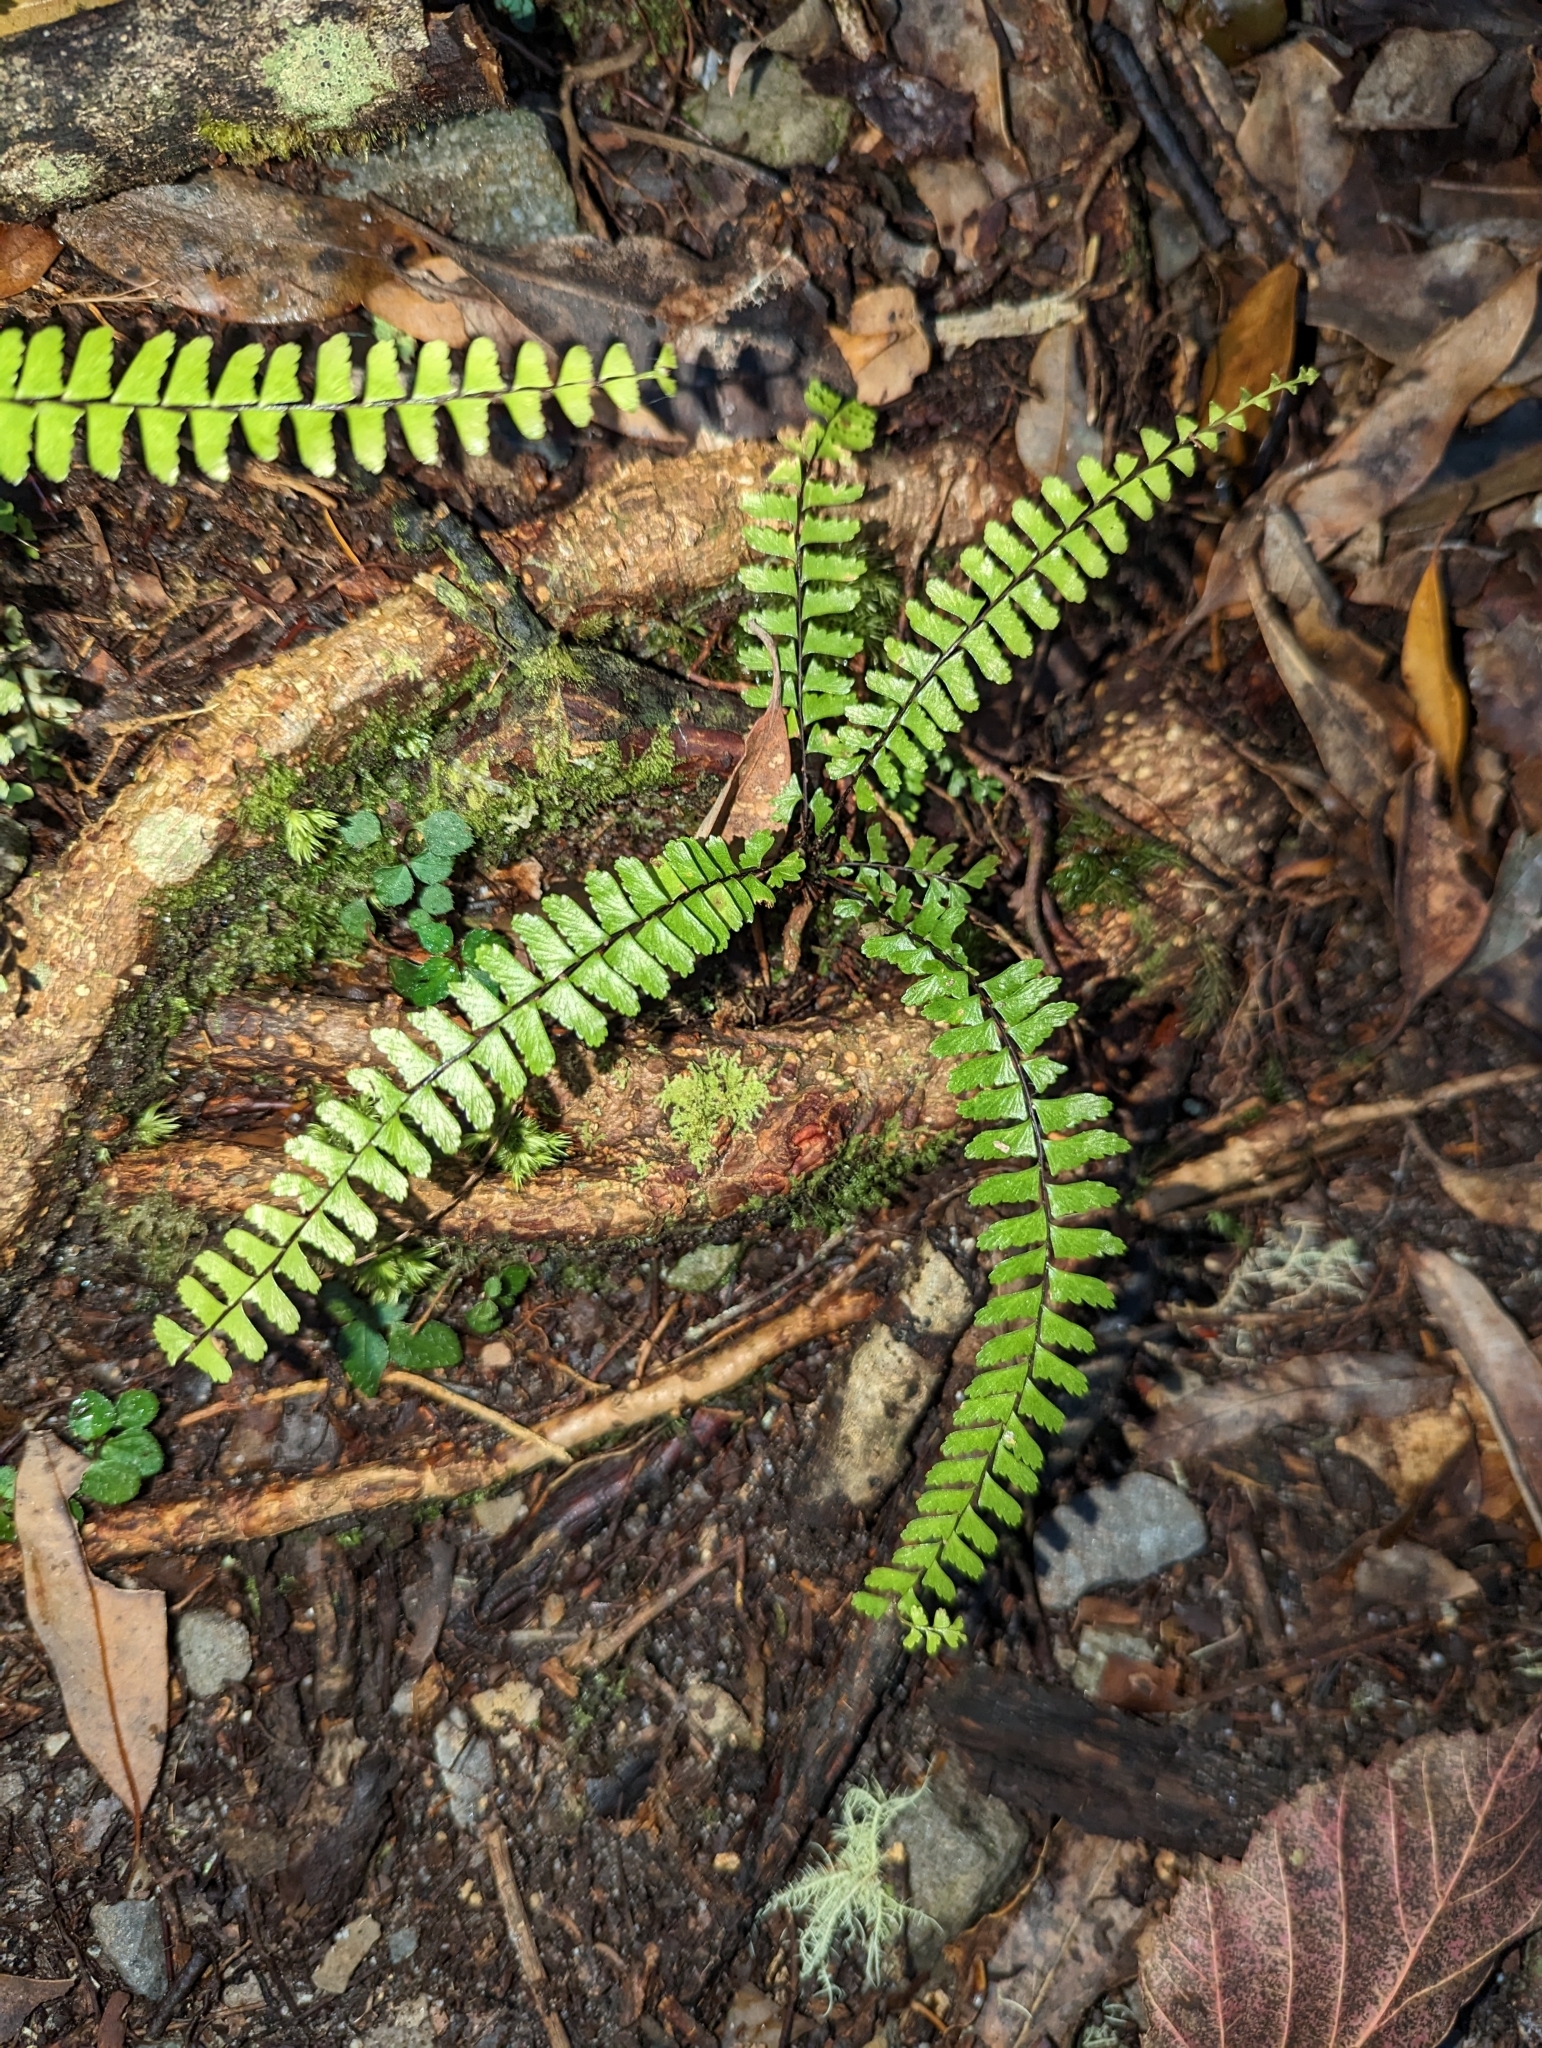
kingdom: Plantae
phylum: Tracheophyta
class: Polypodiopsida
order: Polypodiales
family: Aspleniaceae
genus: Asplenium
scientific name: Asplenium normale
